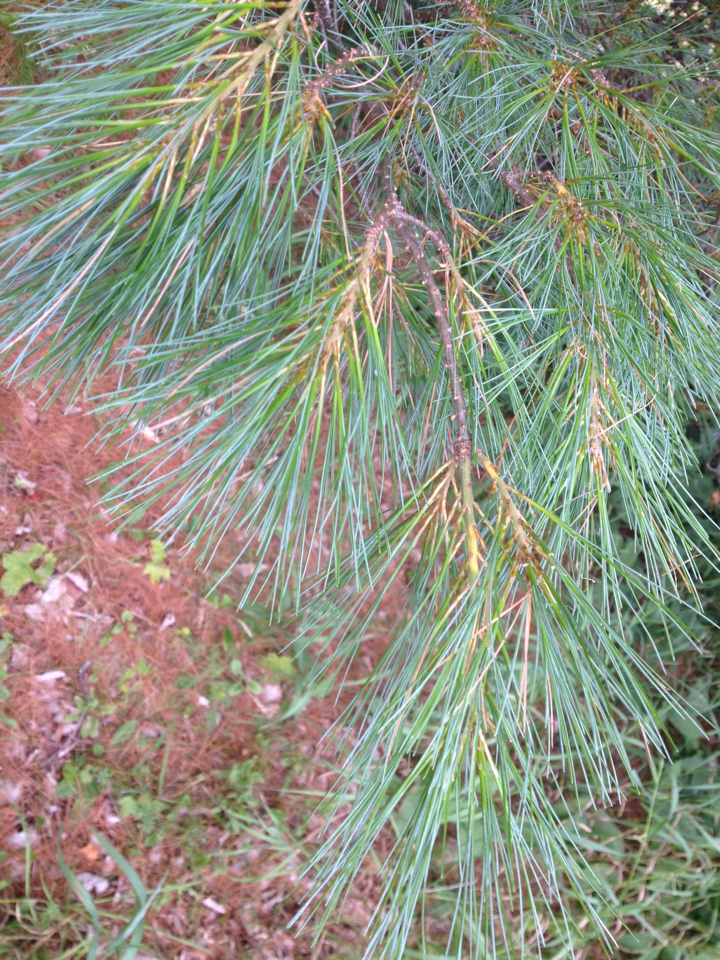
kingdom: Plantae
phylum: Tracheophyta
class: Pinopsida
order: Pinales
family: Pinaceae
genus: Pinus
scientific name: Pinus strobus
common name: Weymouth pine
